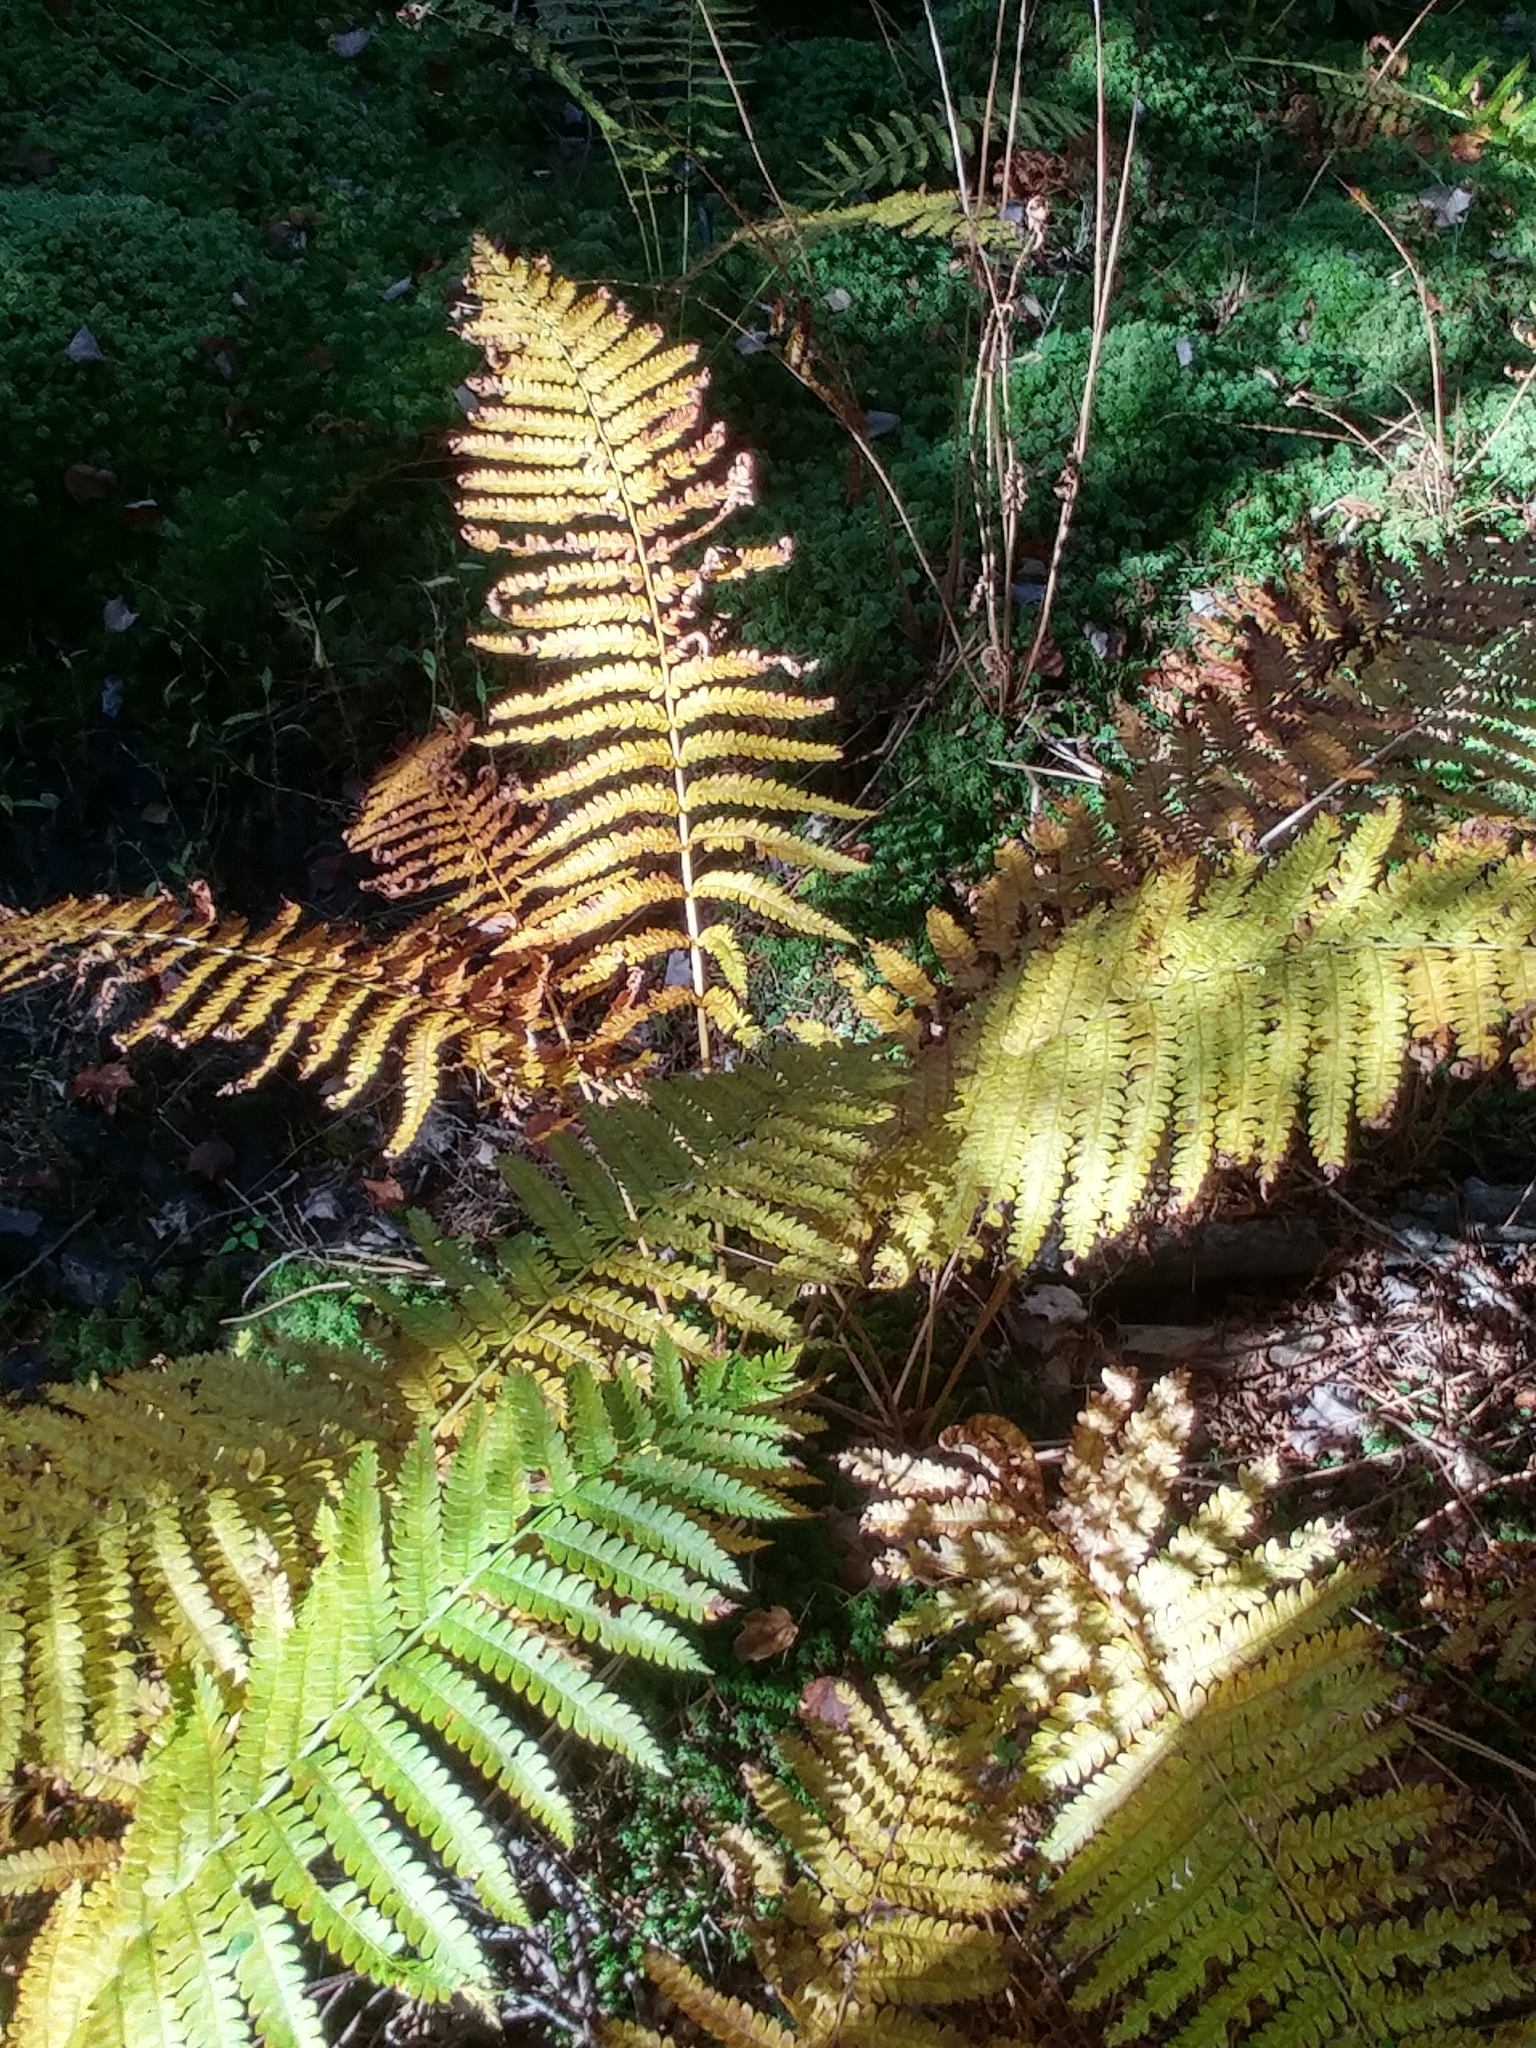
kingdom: Plantae
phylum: Tracheophyta
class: Polypodiopsida
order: Osmundales
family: Osmundaceae
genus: Osmundastrum
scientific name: Osmundastrum cinnamomeum
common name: Cinnamon fern
